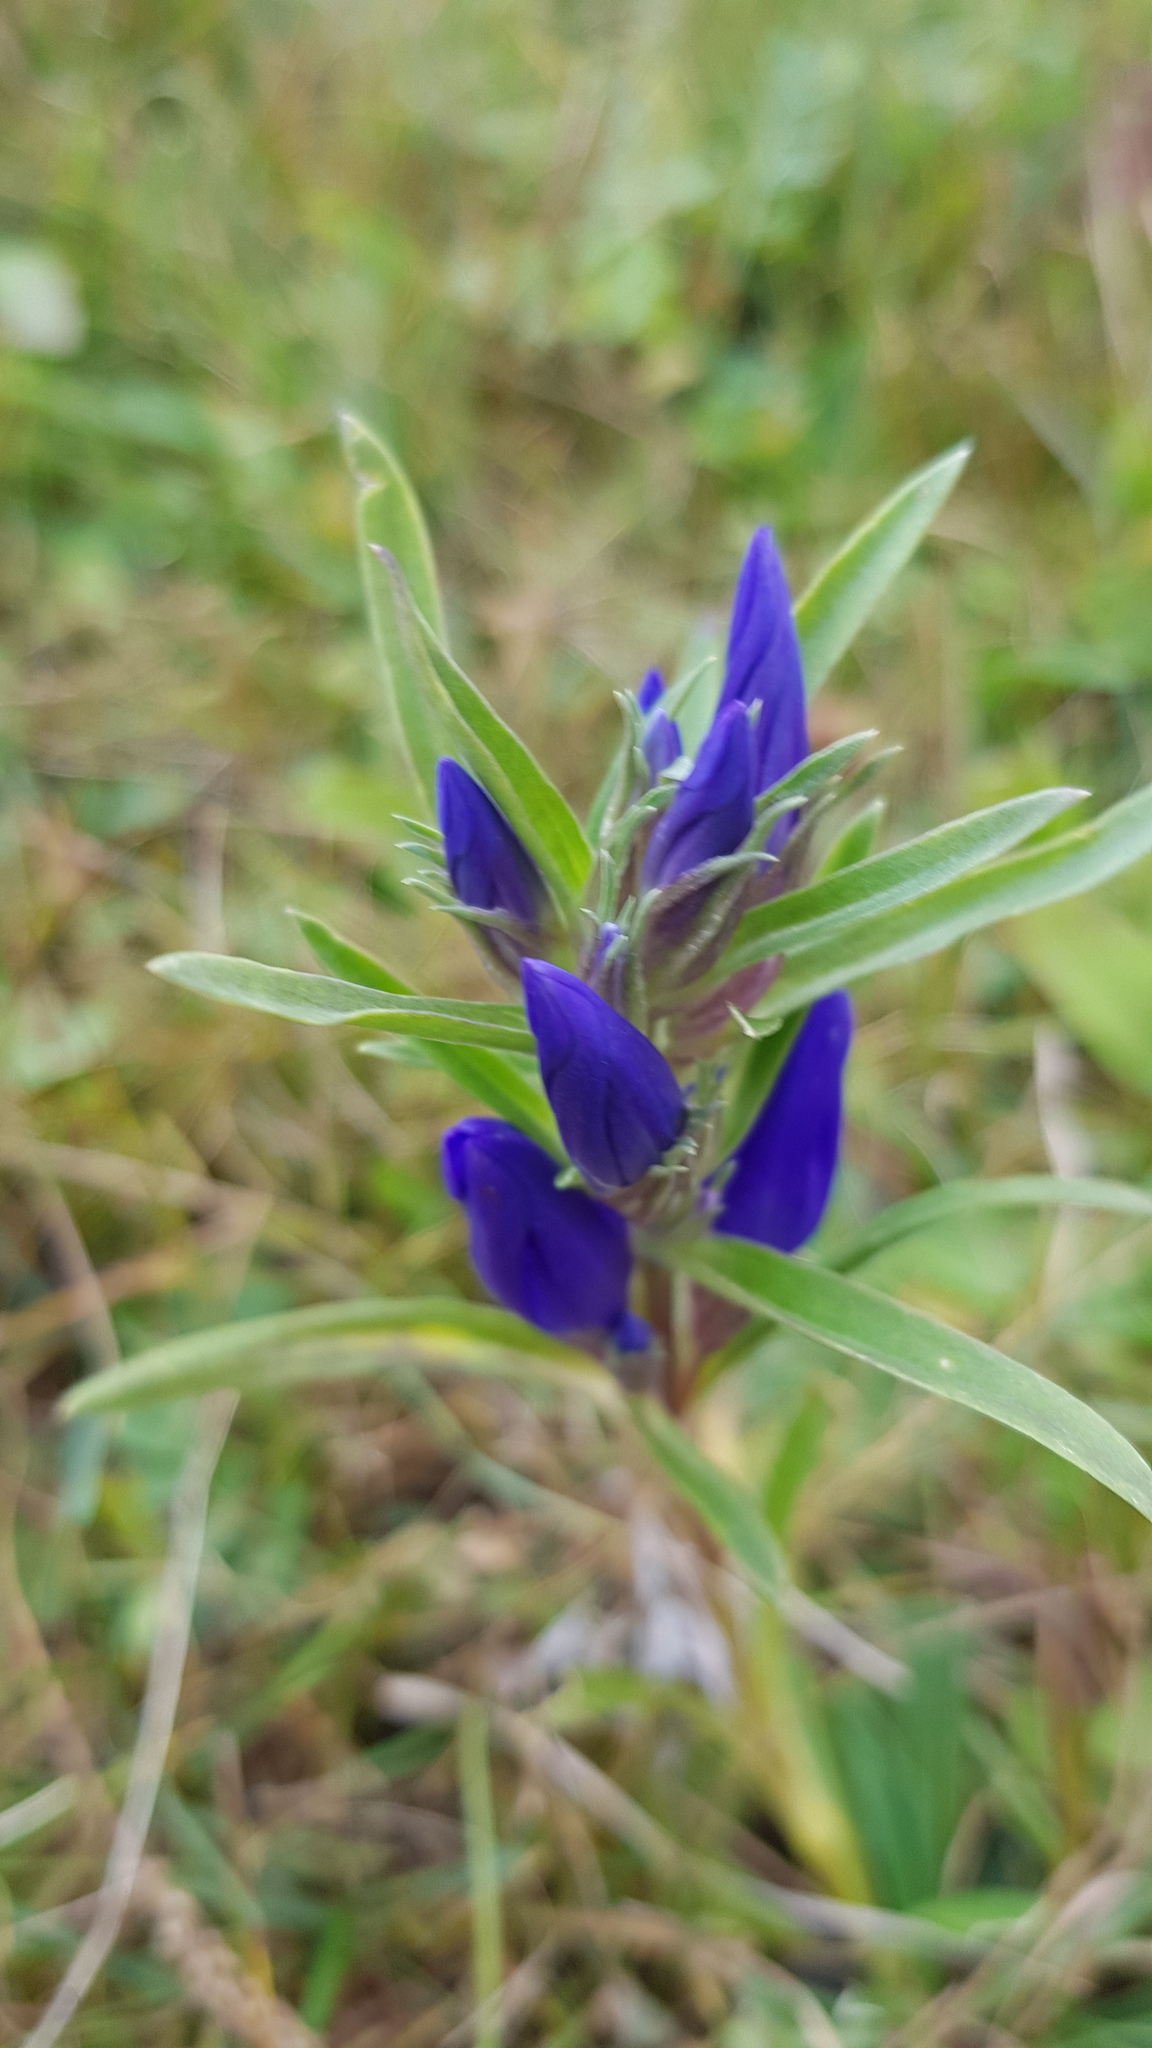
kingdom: Plantae
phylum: Tracheophyta
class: Magnoliopsida
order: Gentianales
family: Gentianaceae
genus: Gentiana
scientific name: Gentiana decumbens
